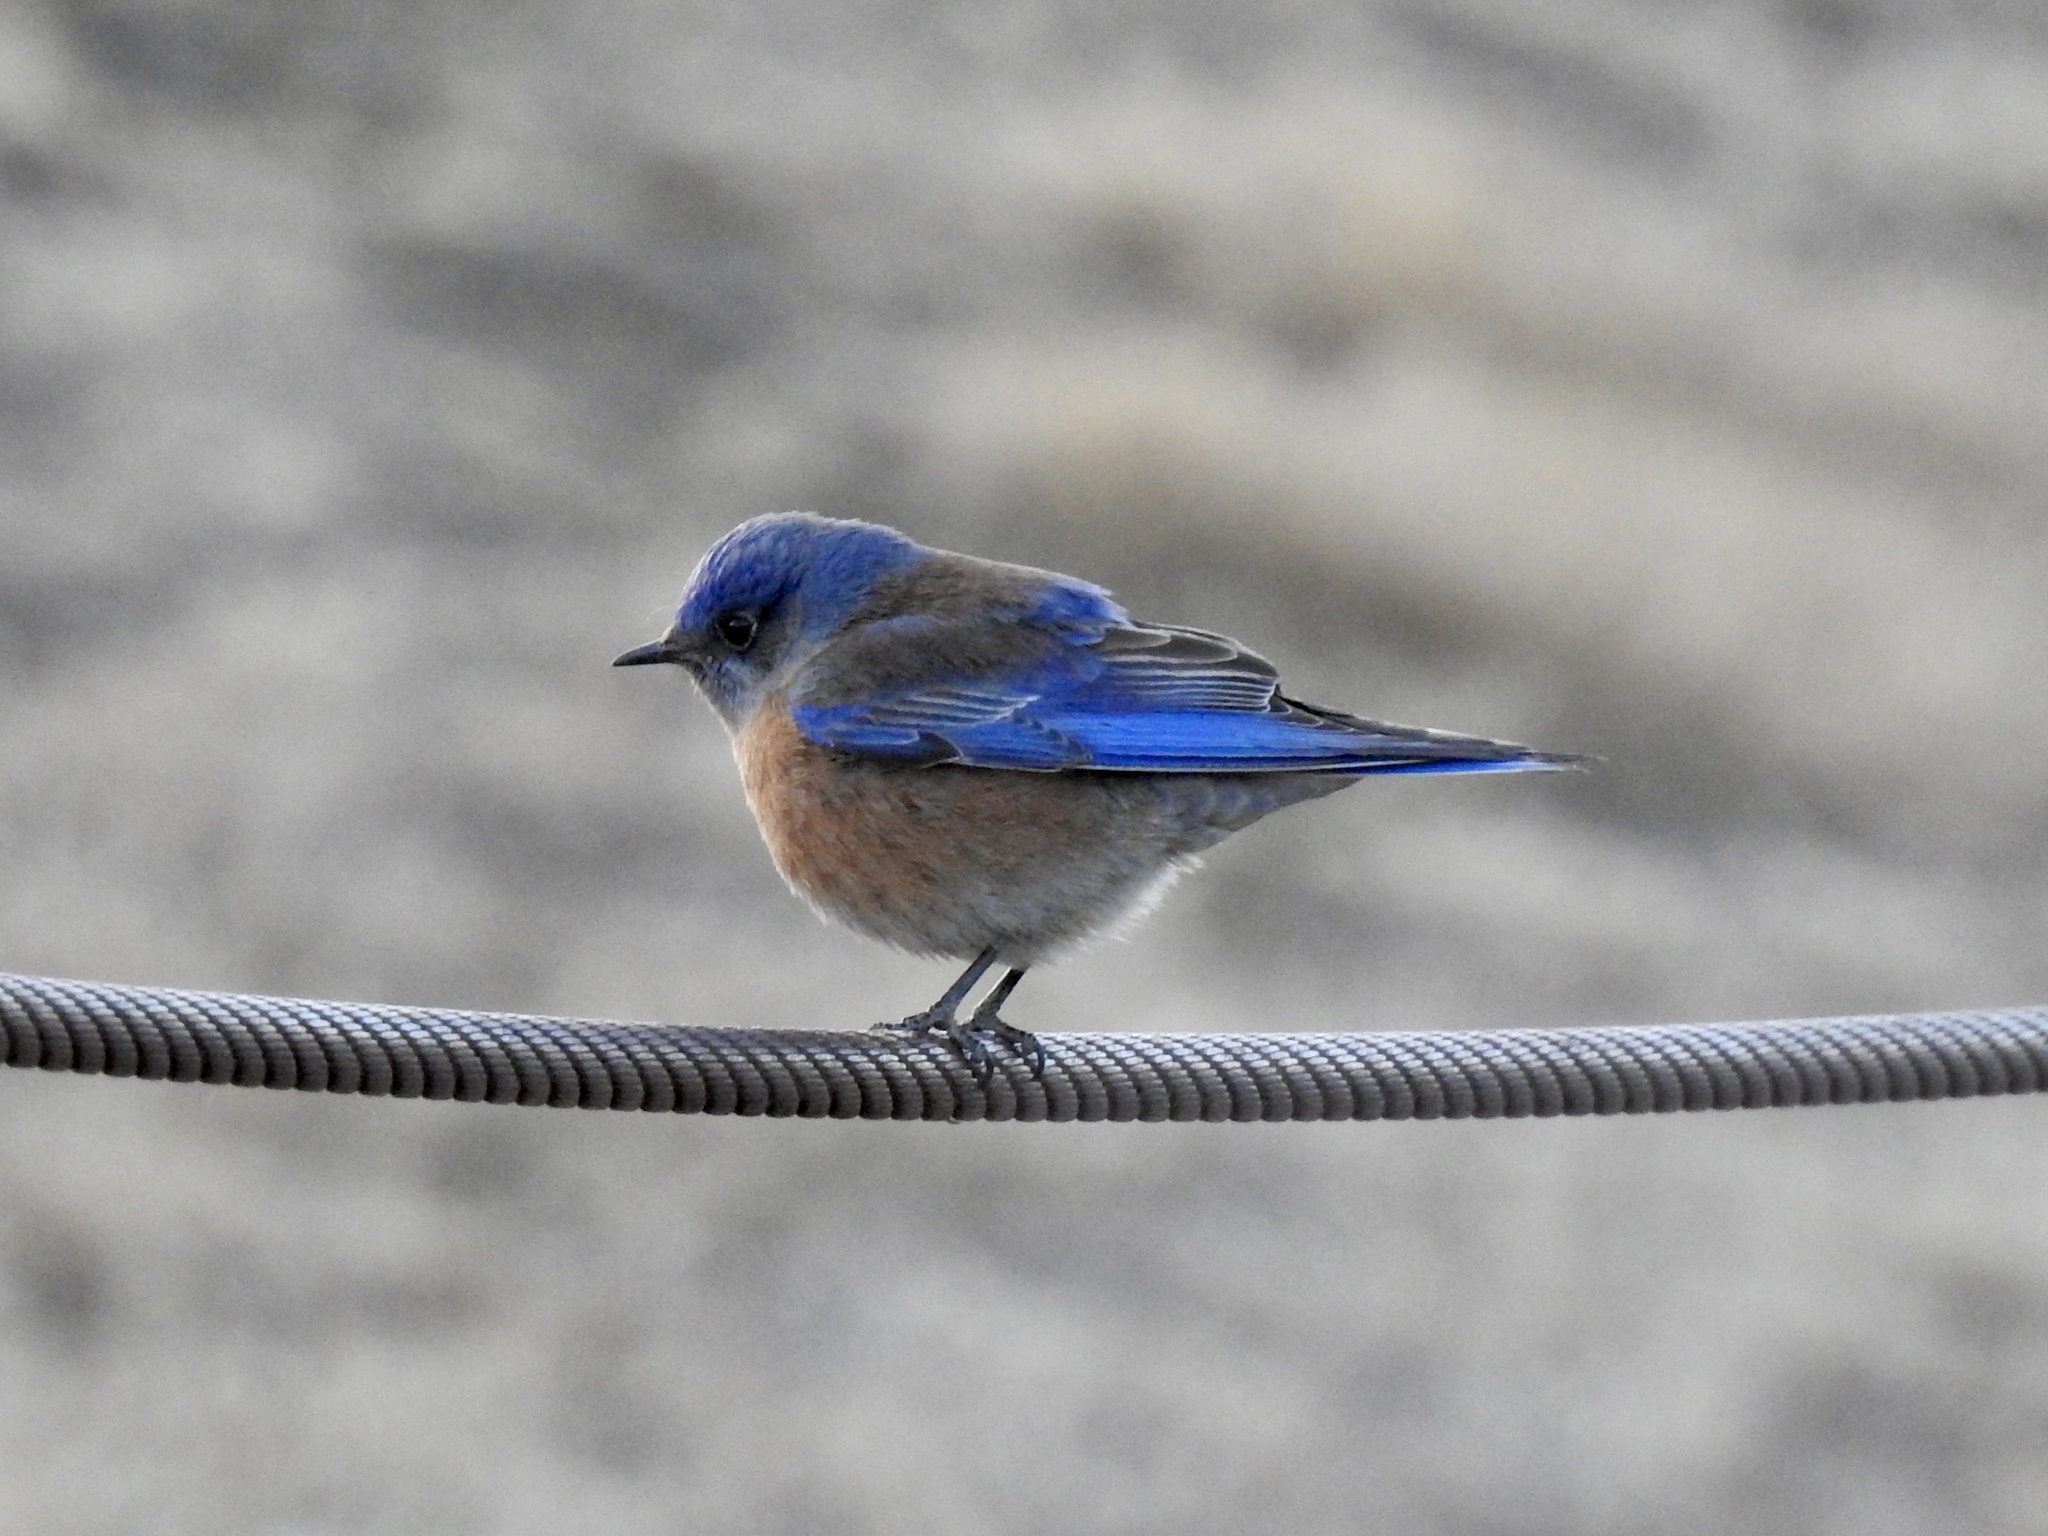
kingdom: Animalia
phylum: Chordata
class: Aves
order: Passeriformes
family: Turdidae
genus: Sialia
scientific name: Sialia mexicana
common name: Western bluebird
